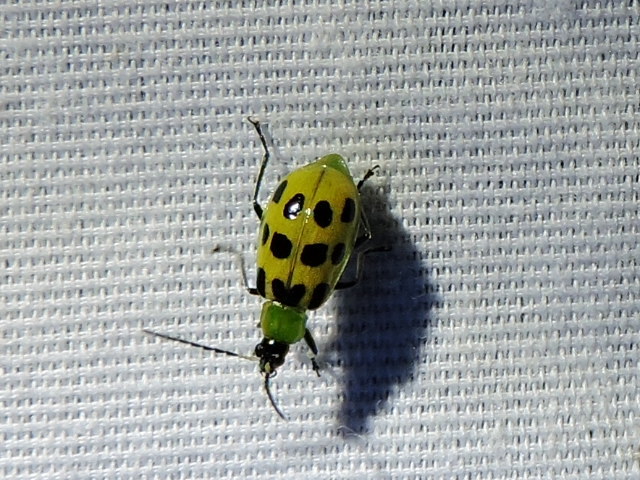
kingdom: Animalia
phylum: Arthropoda
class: Insecta
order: Coleoptera
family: Chrysomelidae
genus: Diabrotica
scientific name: Diabrotica undecimpunctata
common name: Spotted cucumber beetle
